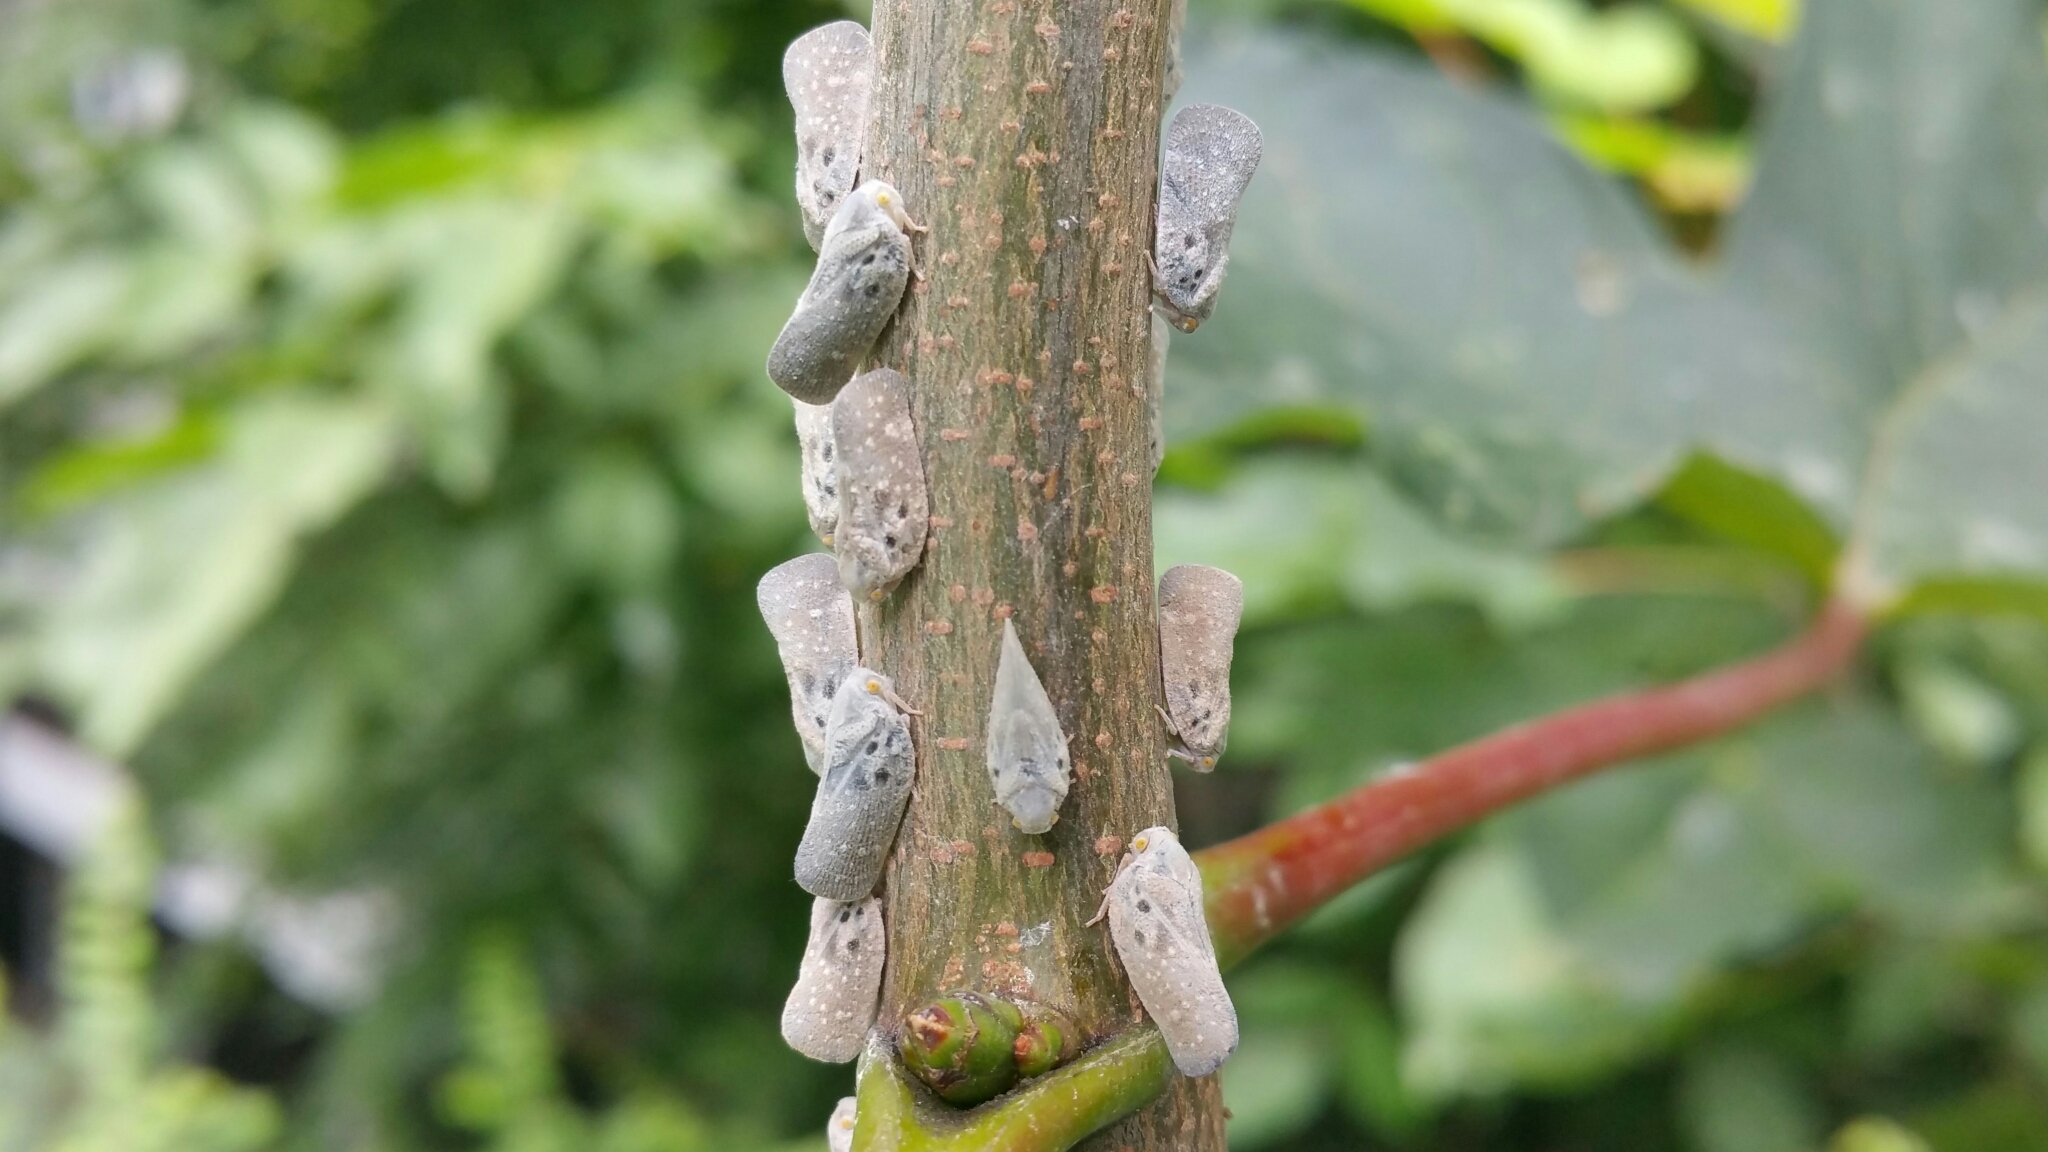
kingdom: Animalia
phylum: Arthropoda
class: Insecta
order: Hemiptera
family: Flatidae
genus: Metcalfa
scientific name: Metcalfa pruinosa
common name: Citrus flatid planthopper
